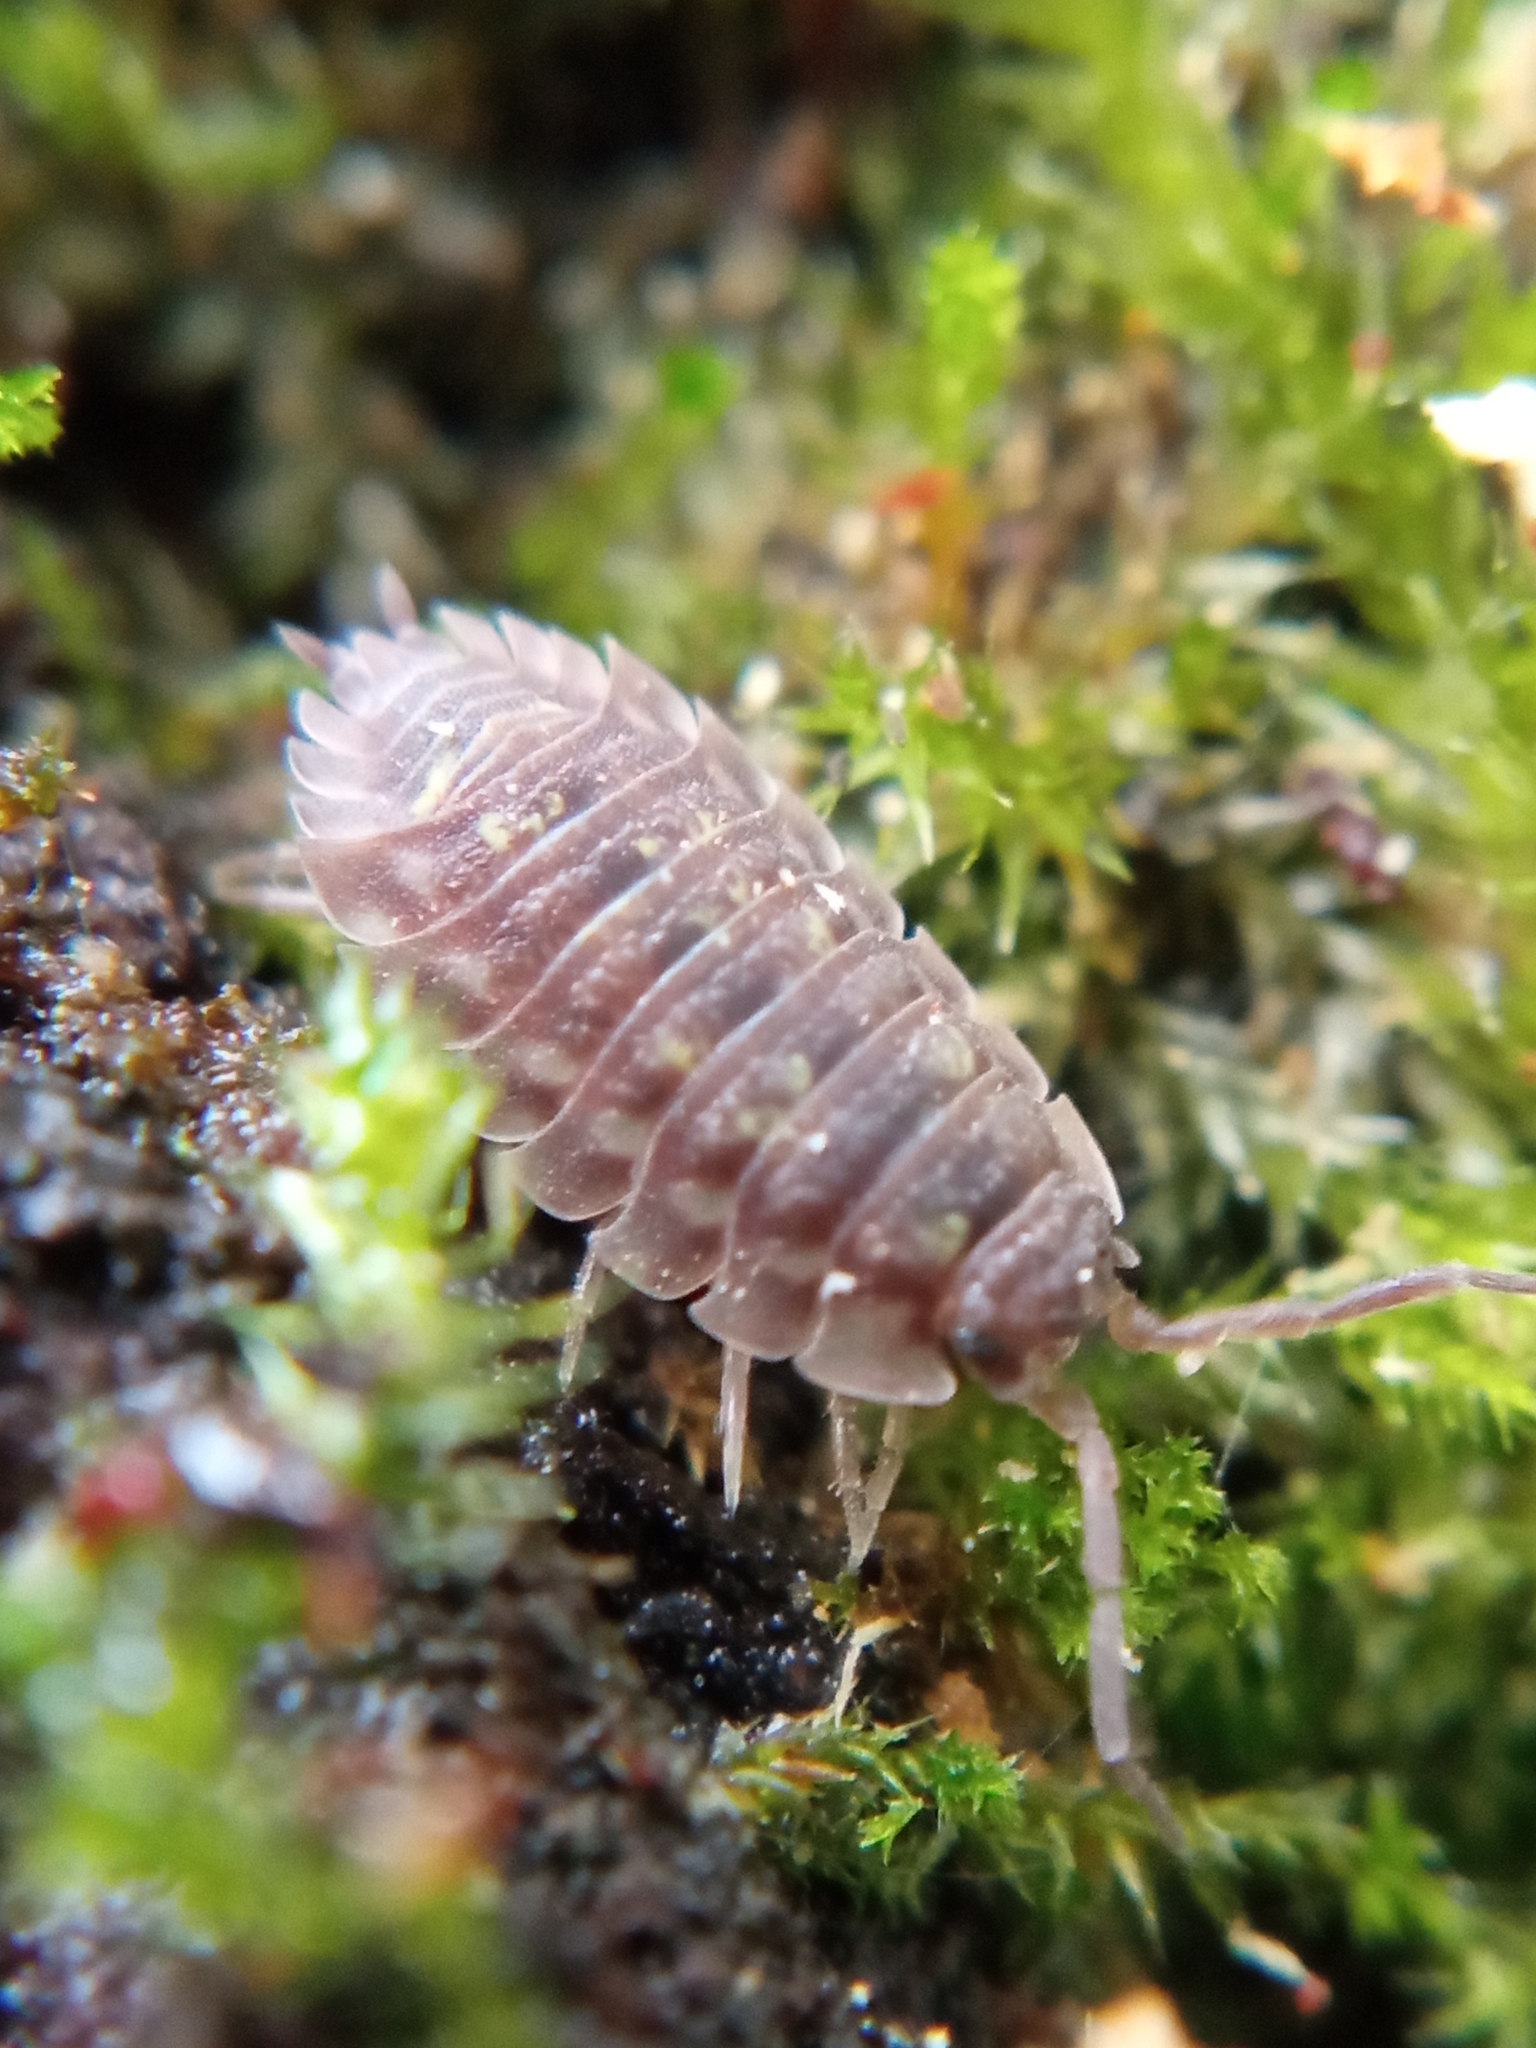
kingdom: Animalia
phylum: Arthropoda
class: Malacostraca
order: Isopoda
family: Oniscidae
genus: Oniscus
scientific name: Oniscus asellus
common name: Common shiny woodlouse
